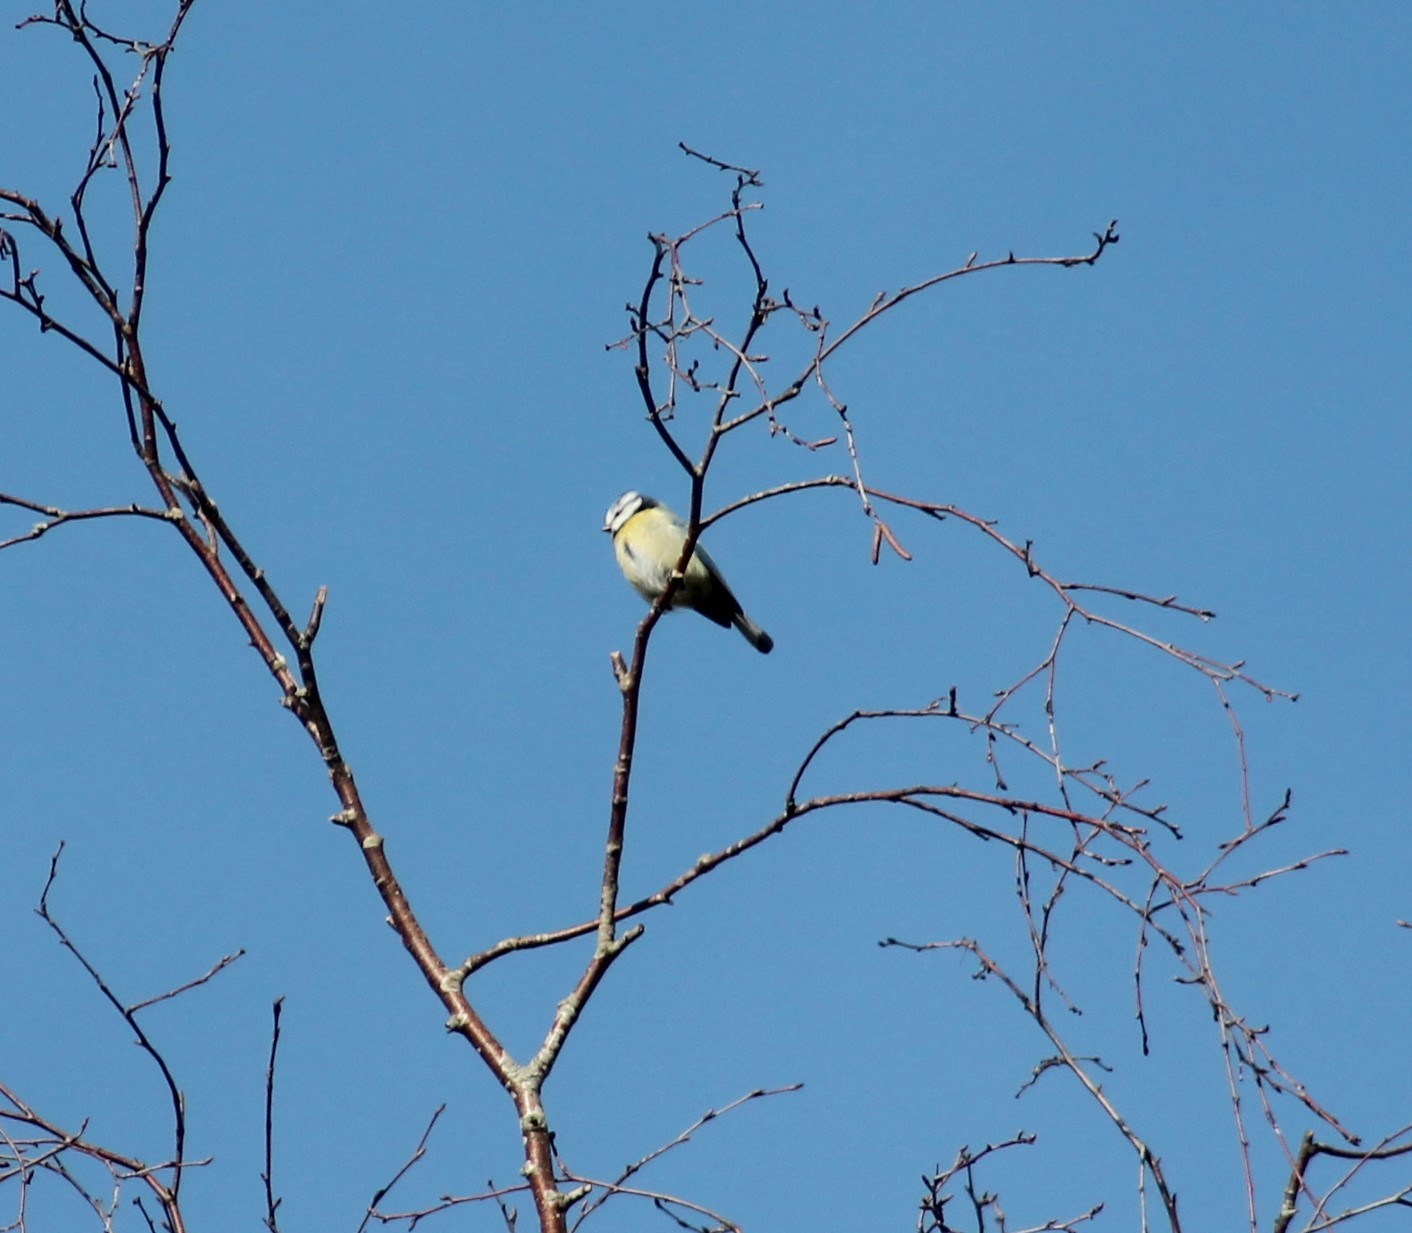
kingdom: Animalia
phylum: Chordata
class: Aves
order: Passeriformes
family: Paridae
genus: Cyanistes
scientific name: Cyanistes caeruleus
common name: Eurasian blue tit
